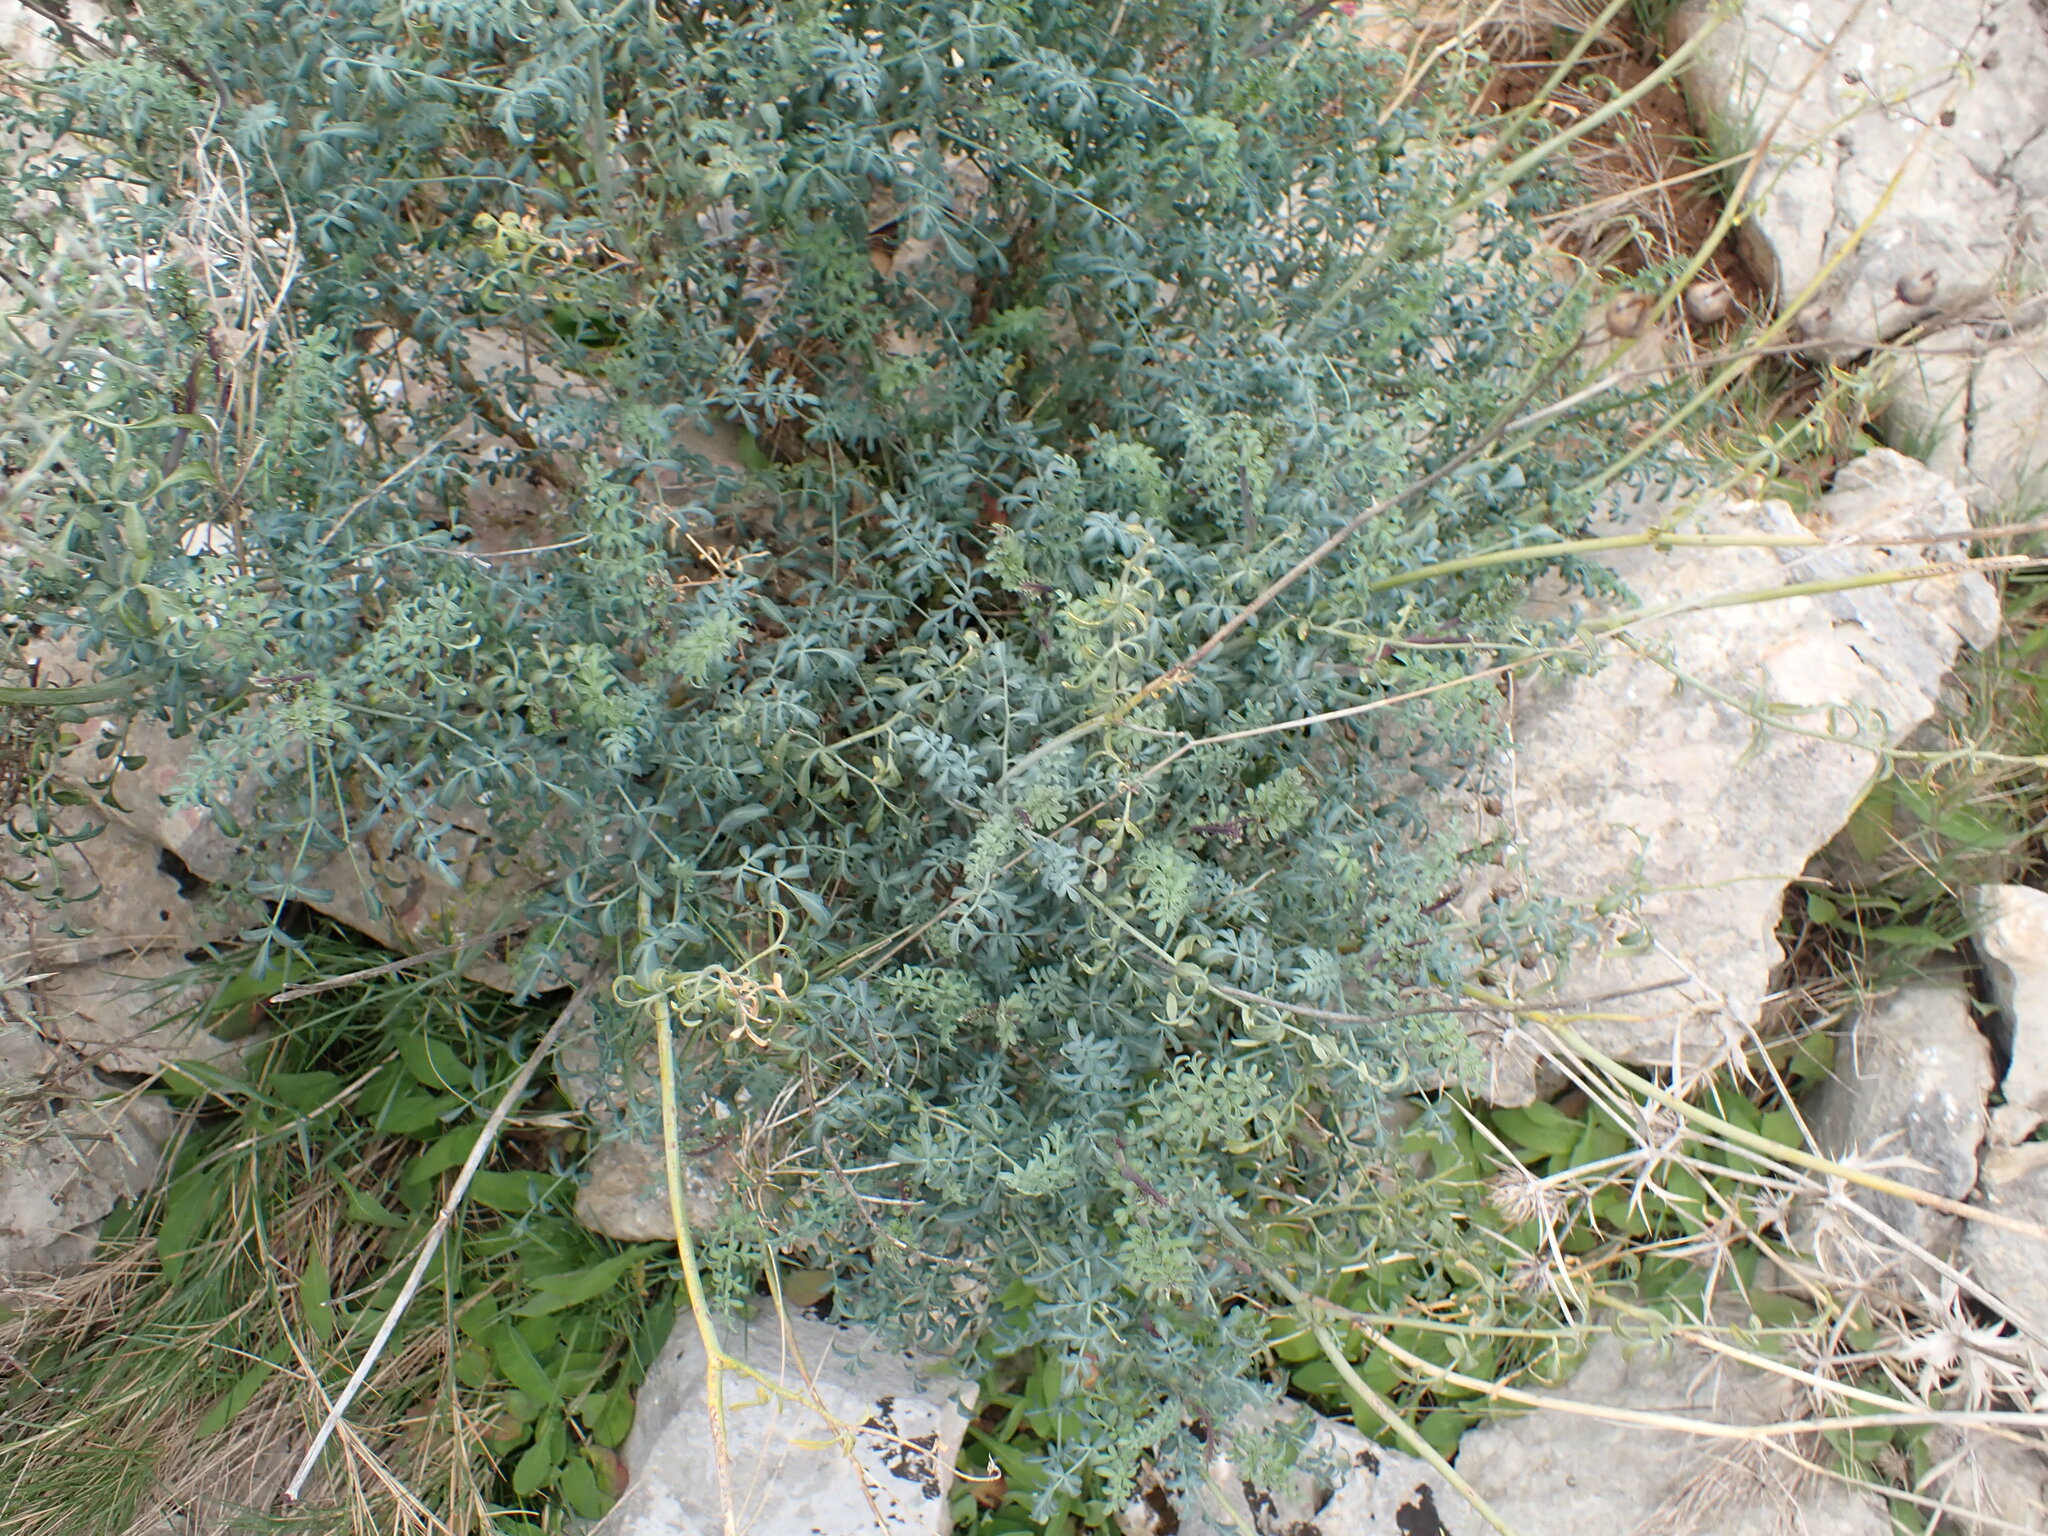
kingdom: Plantae
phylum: Tracheophyta
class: Magnoliopsida
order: Sapindales
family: Rutaceae
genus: Ruta
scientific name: Ruta angustifolia
